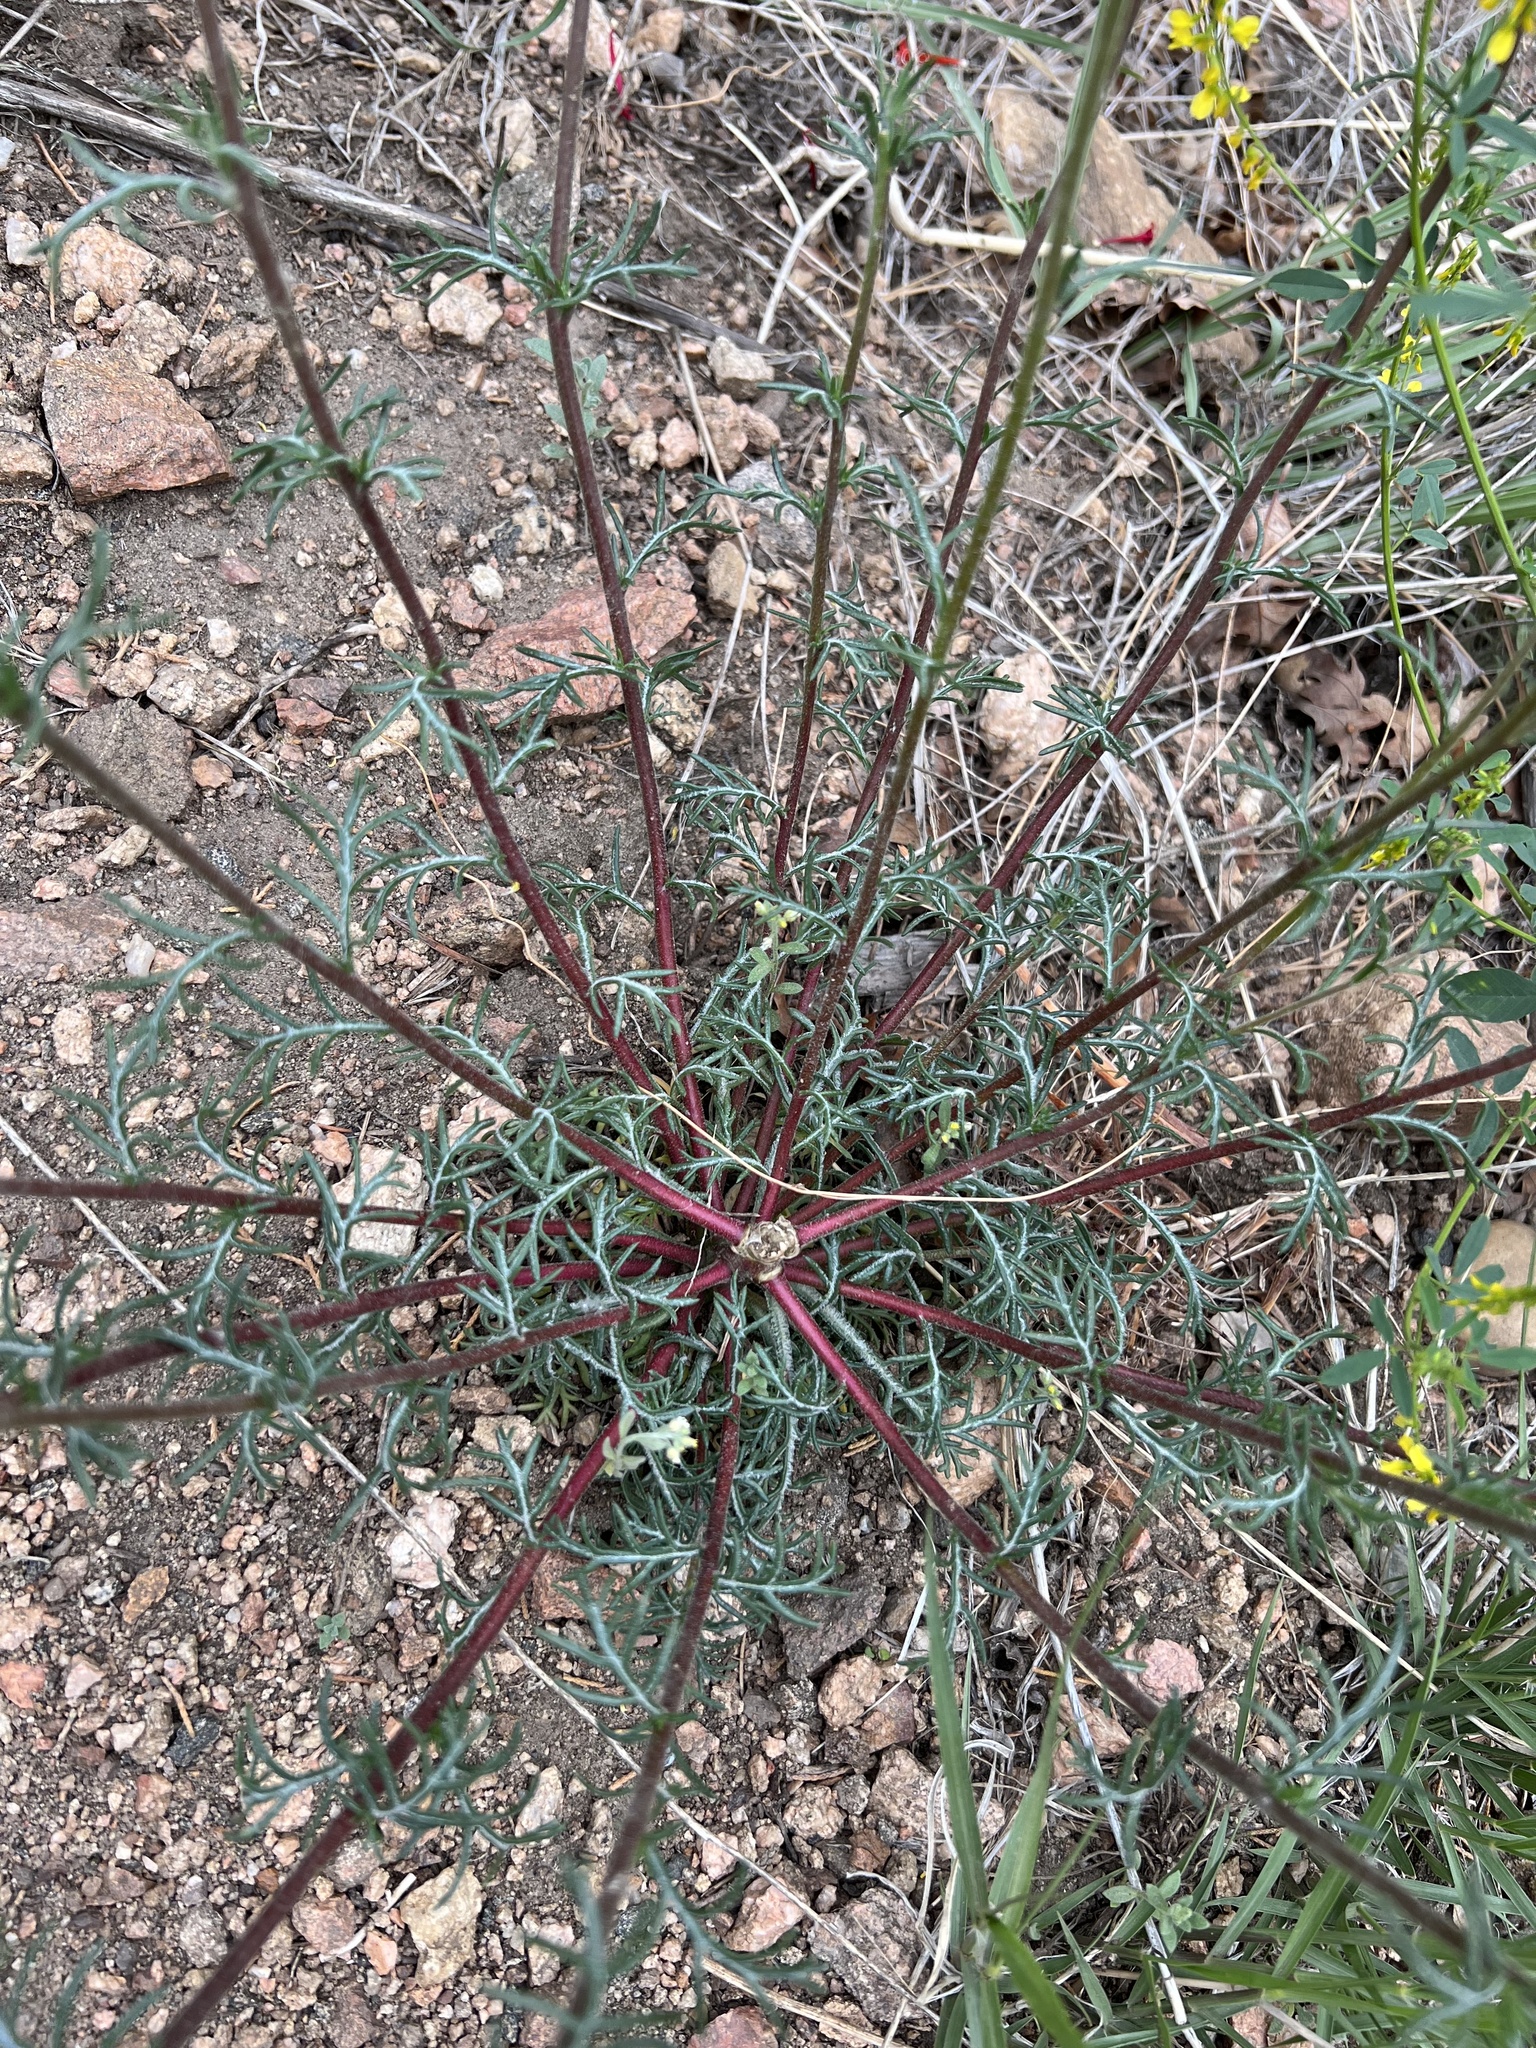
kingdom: Plantae
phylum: Tracheophyta
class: Magnoliopsida
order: Ericales
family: Polemoniaceae
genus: Ipomopsis
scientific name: Ipomopsis aggregata
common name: Scarlet gilia
